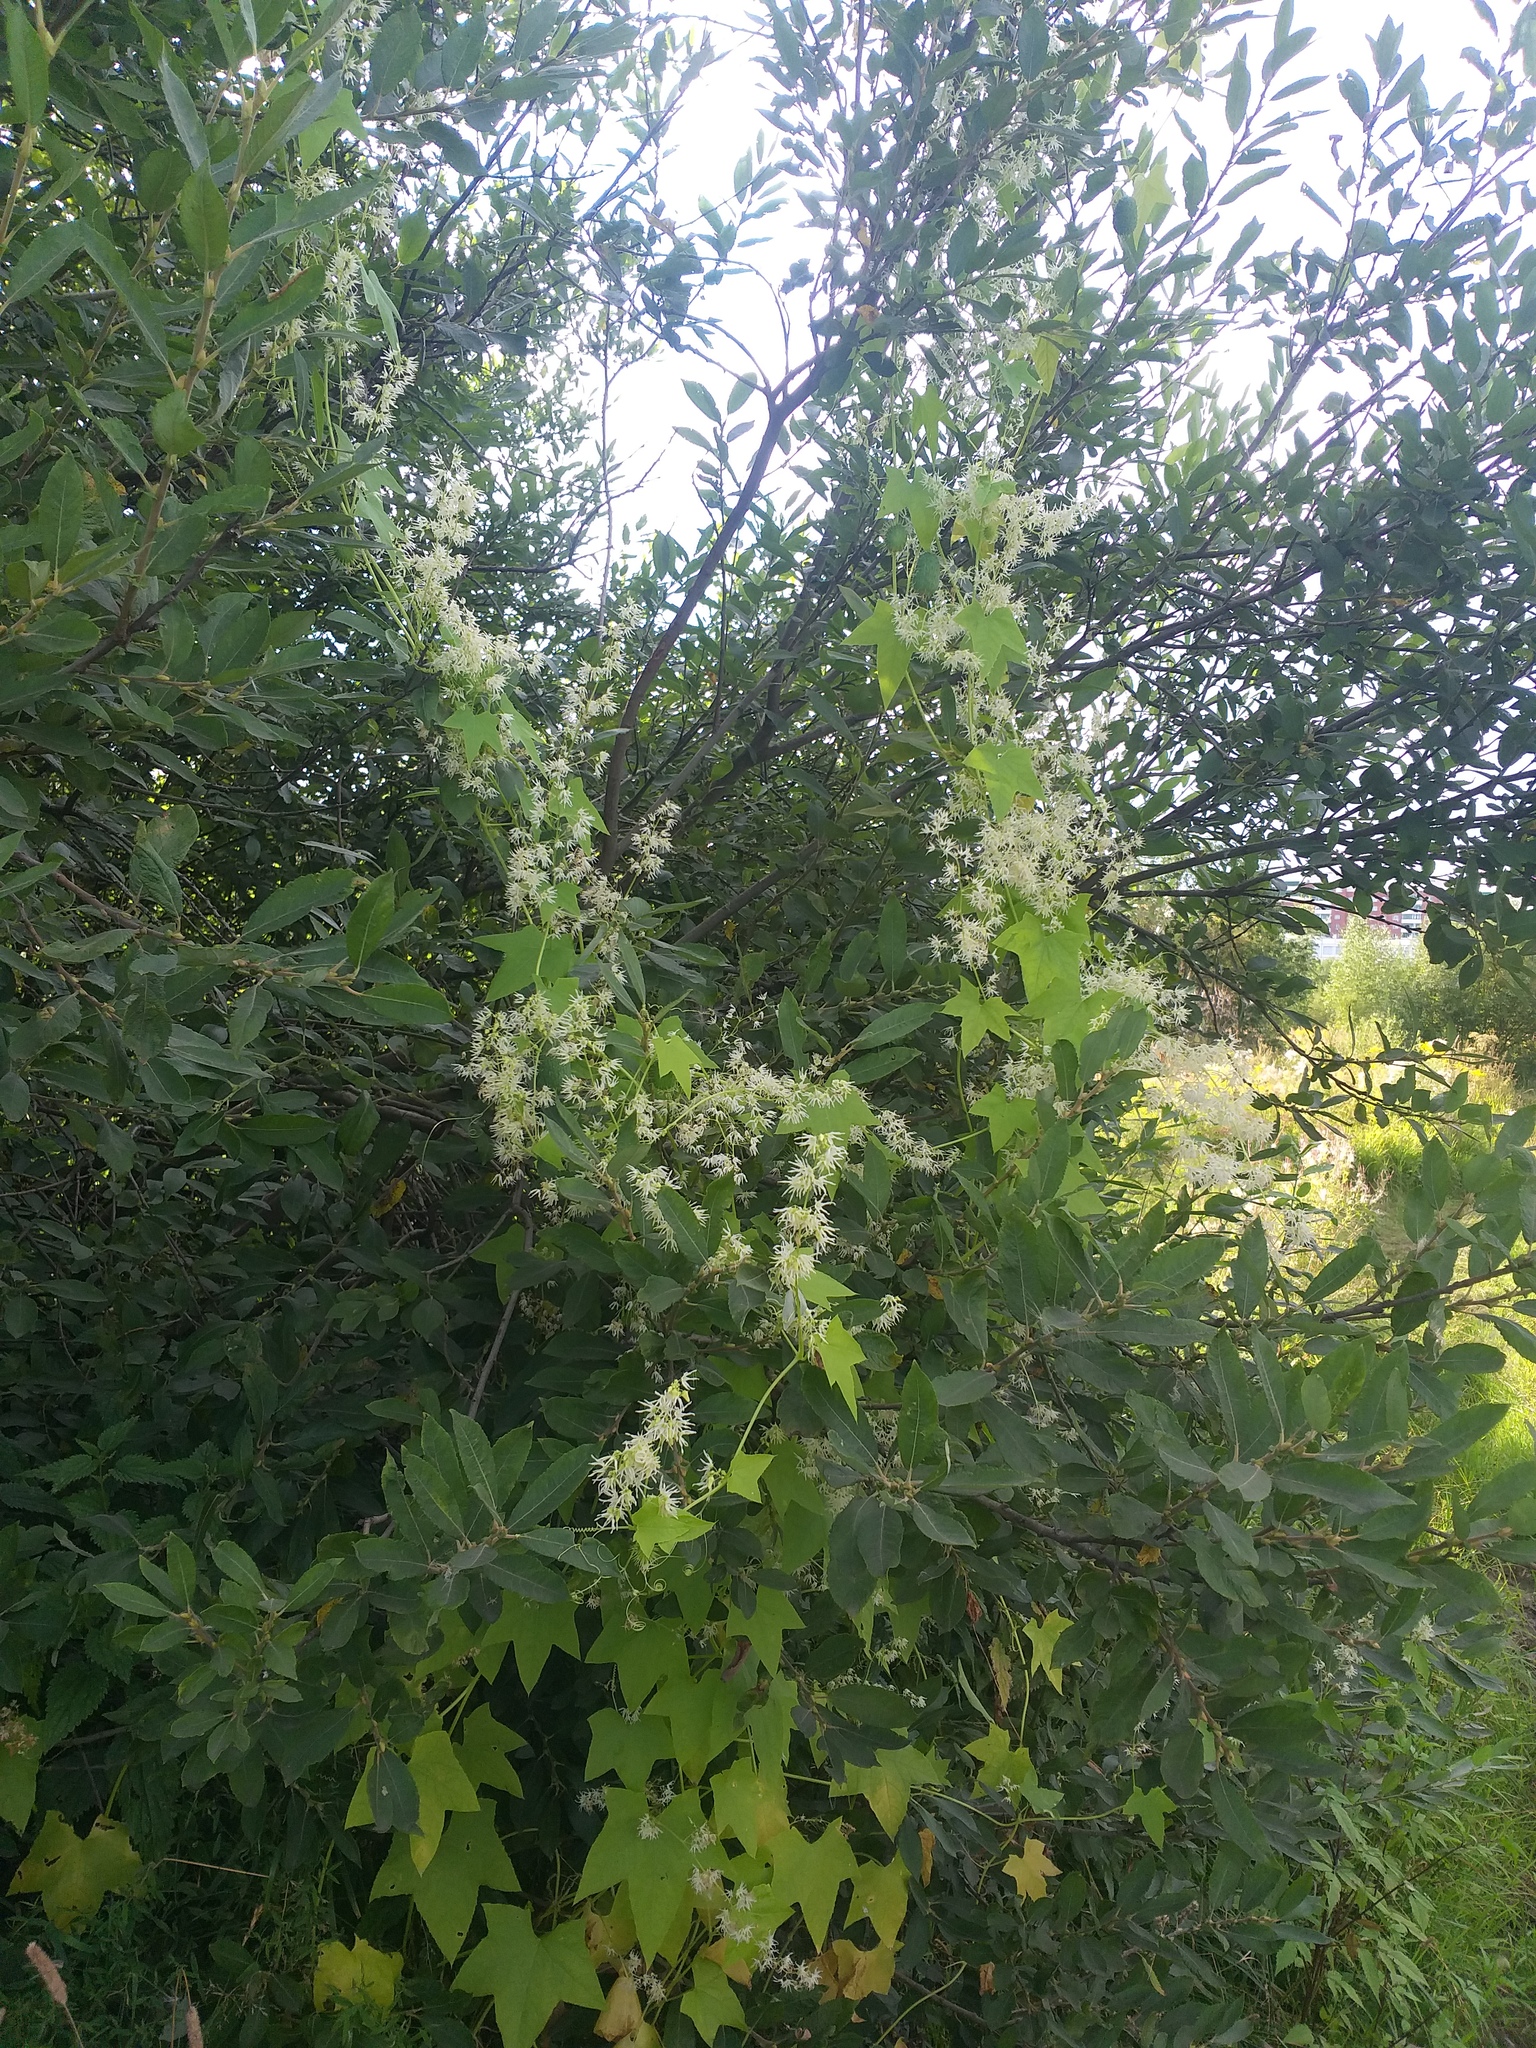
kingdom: Plantae
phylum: Tracheophyta
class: Magnoliopsida
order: Cucurbitales
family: Cucurbitaceae
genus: Echinocystis
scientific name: Echinocystis lobata
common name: Wild cucumber
